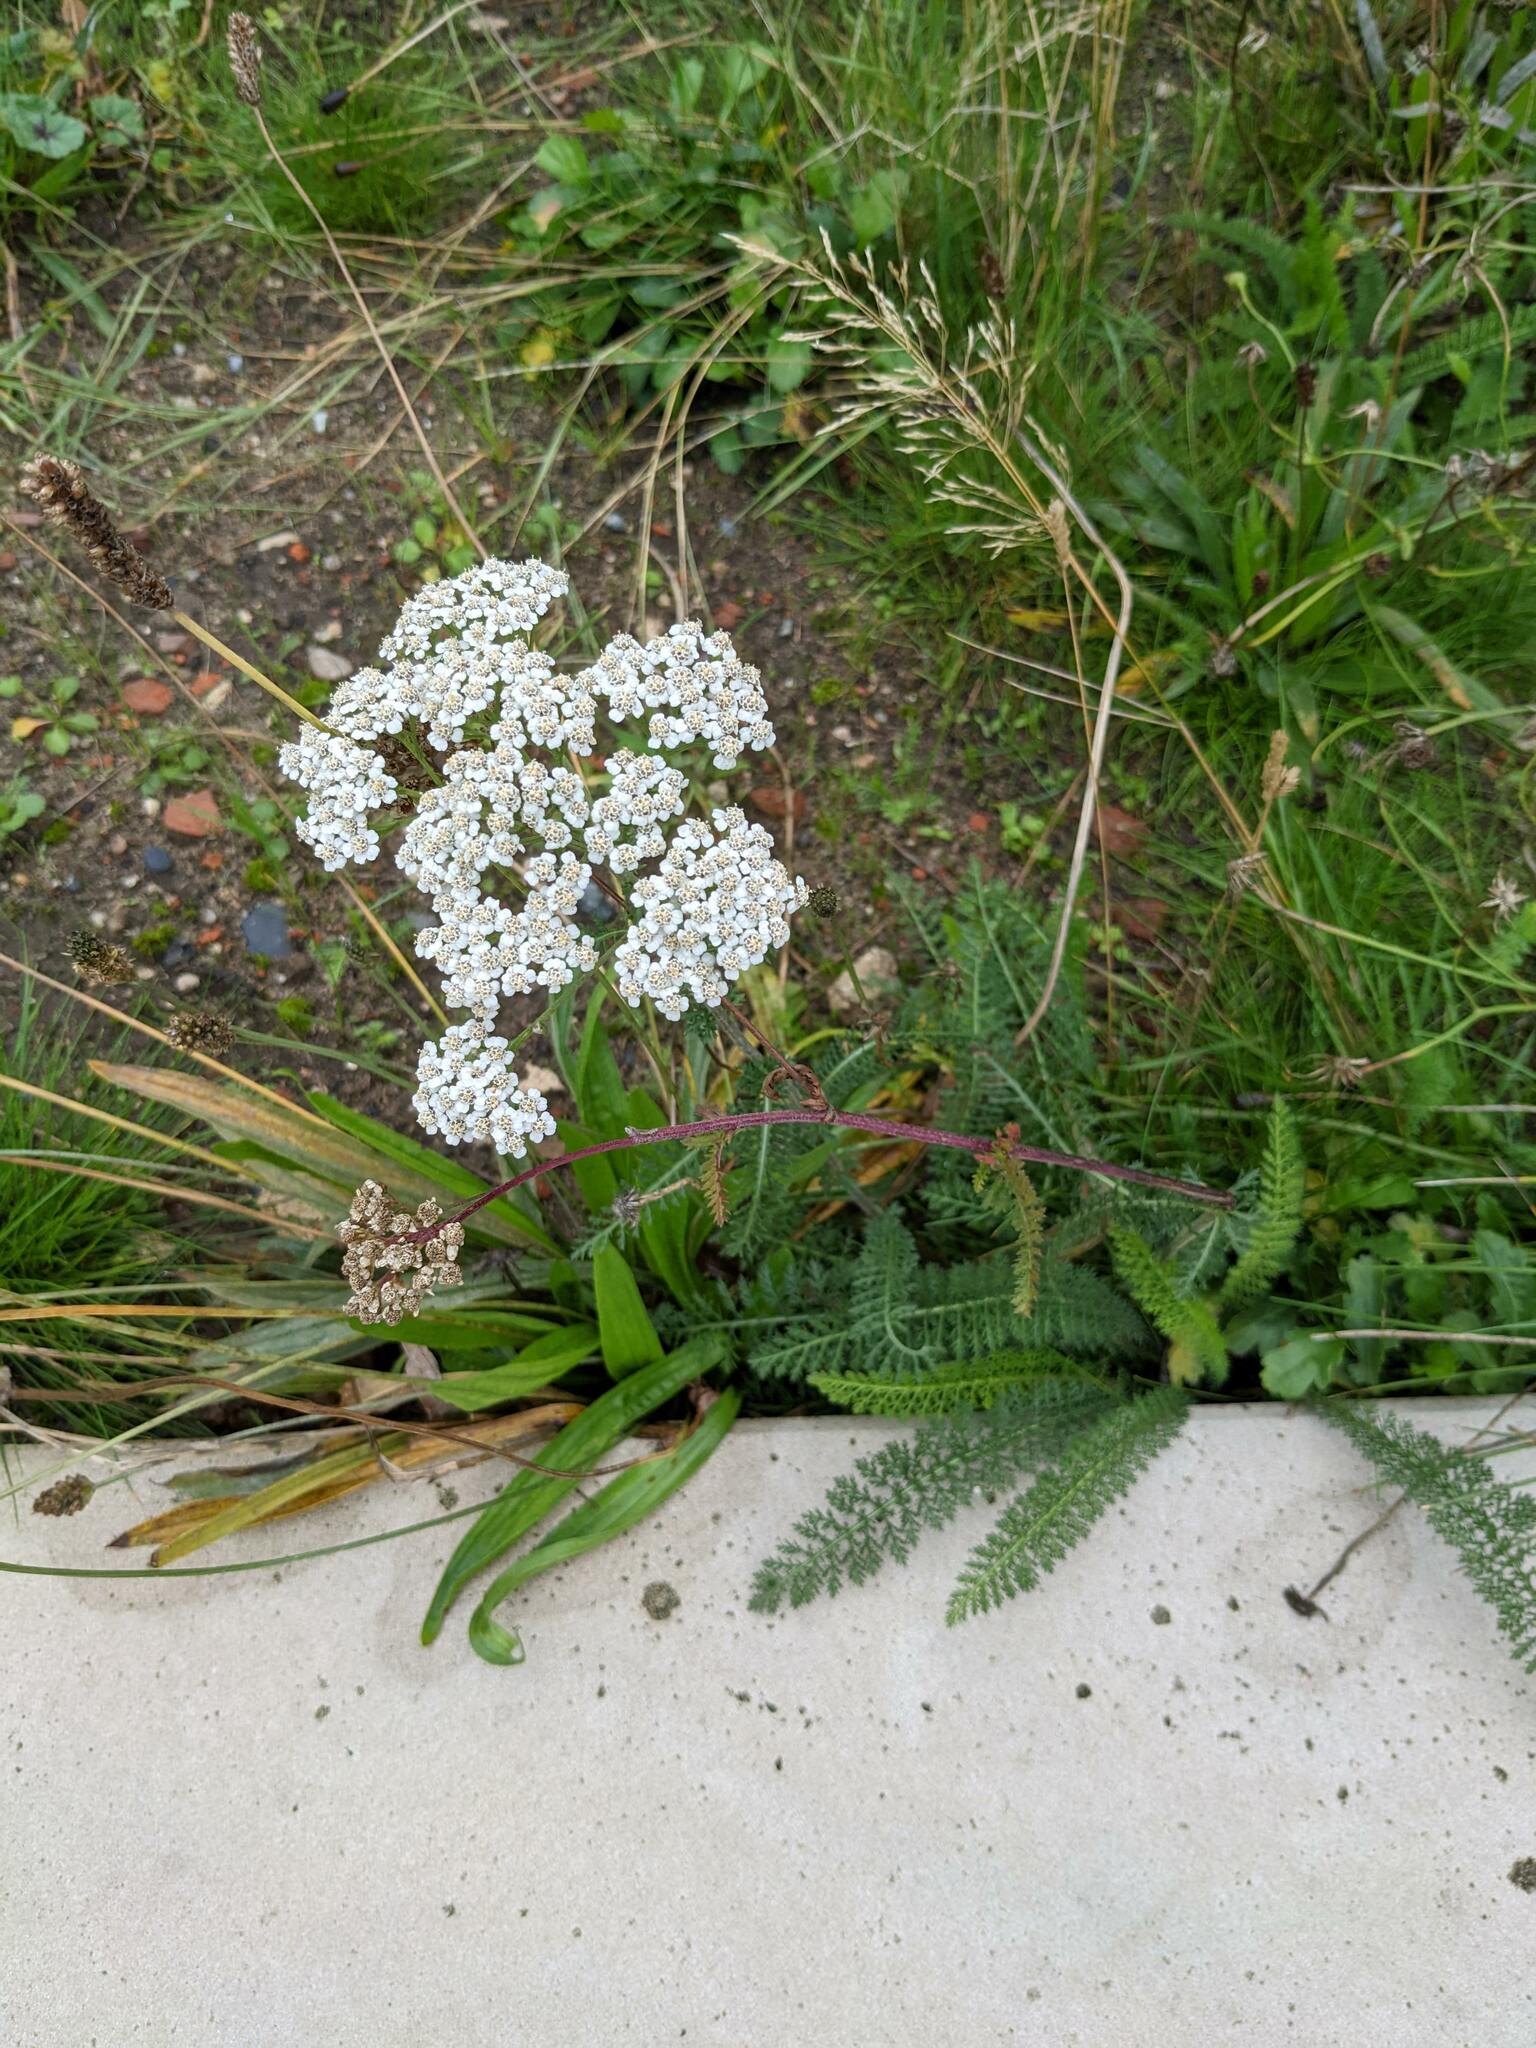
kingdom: Plantae
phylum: Tracheophyta
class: Magnoliopsida
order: Asterales
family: Asteraceae
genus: Achillea
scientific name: Achillea millefolium
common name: Yarrow
